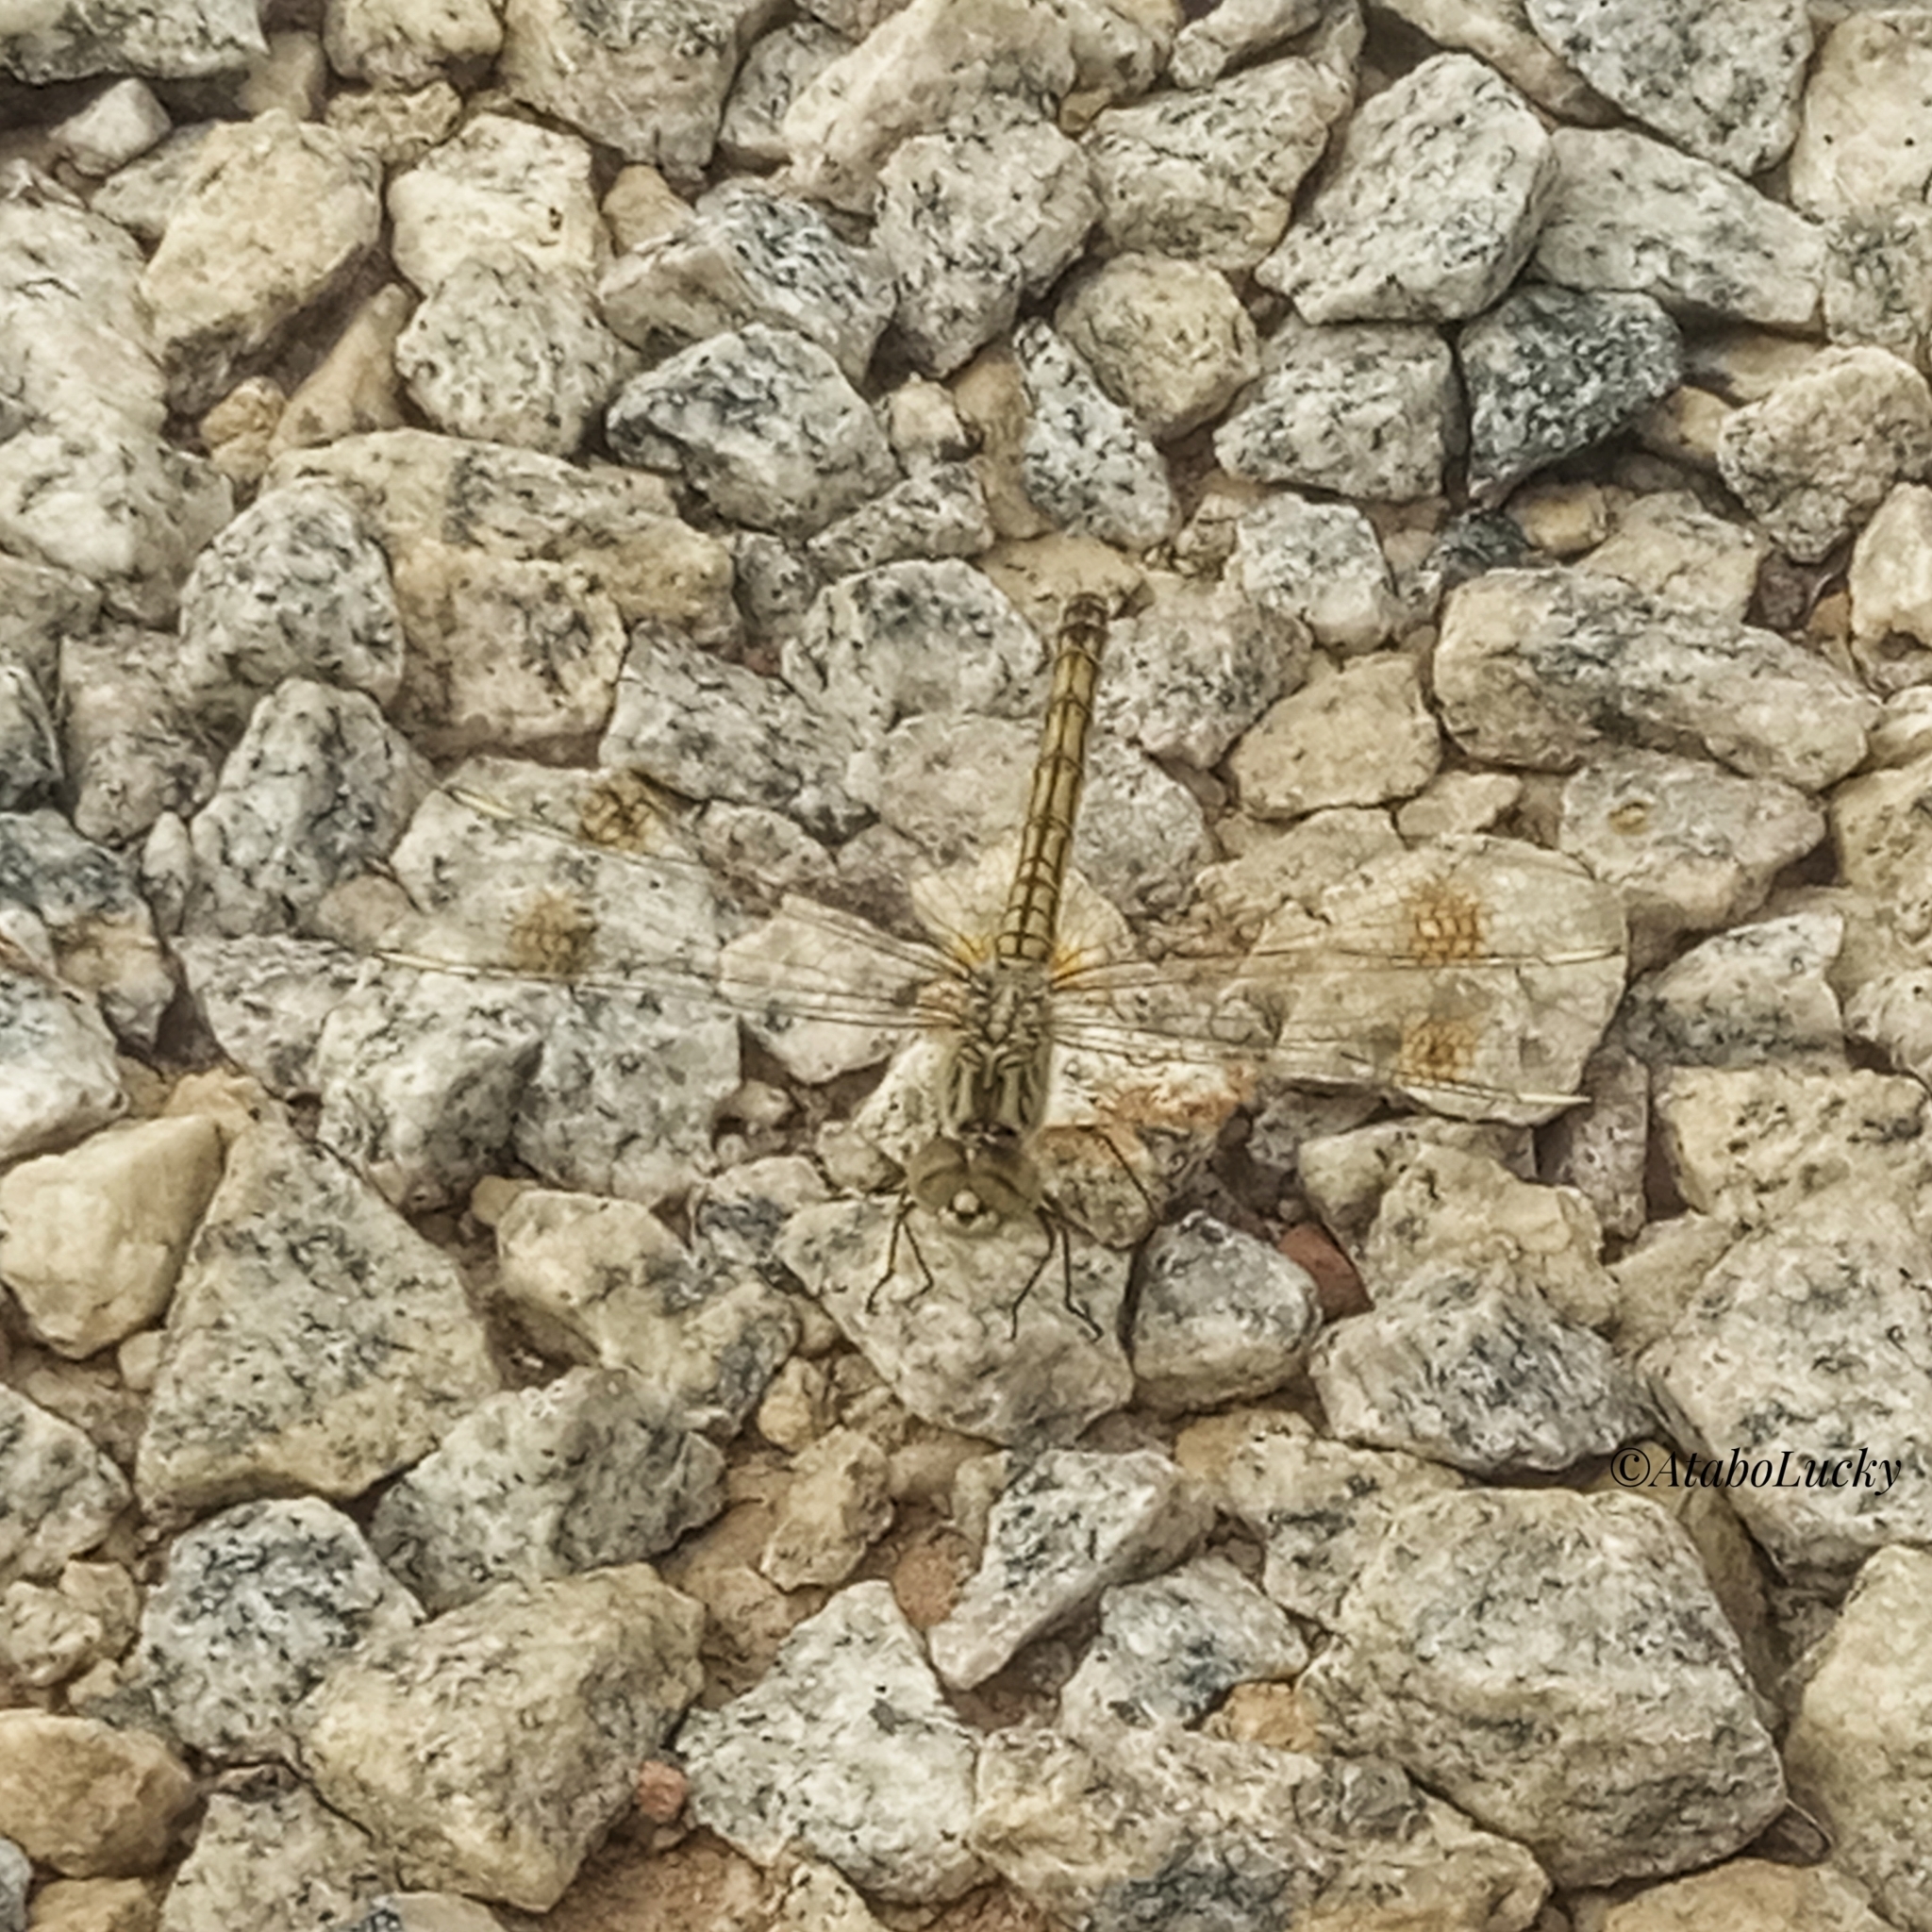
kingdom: Animalia
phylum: Arthropoda
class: Insecta
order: Odonata
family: Libellulidae
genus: Brachythemis
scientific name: Brachythemis impartita
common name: Banded groundling
